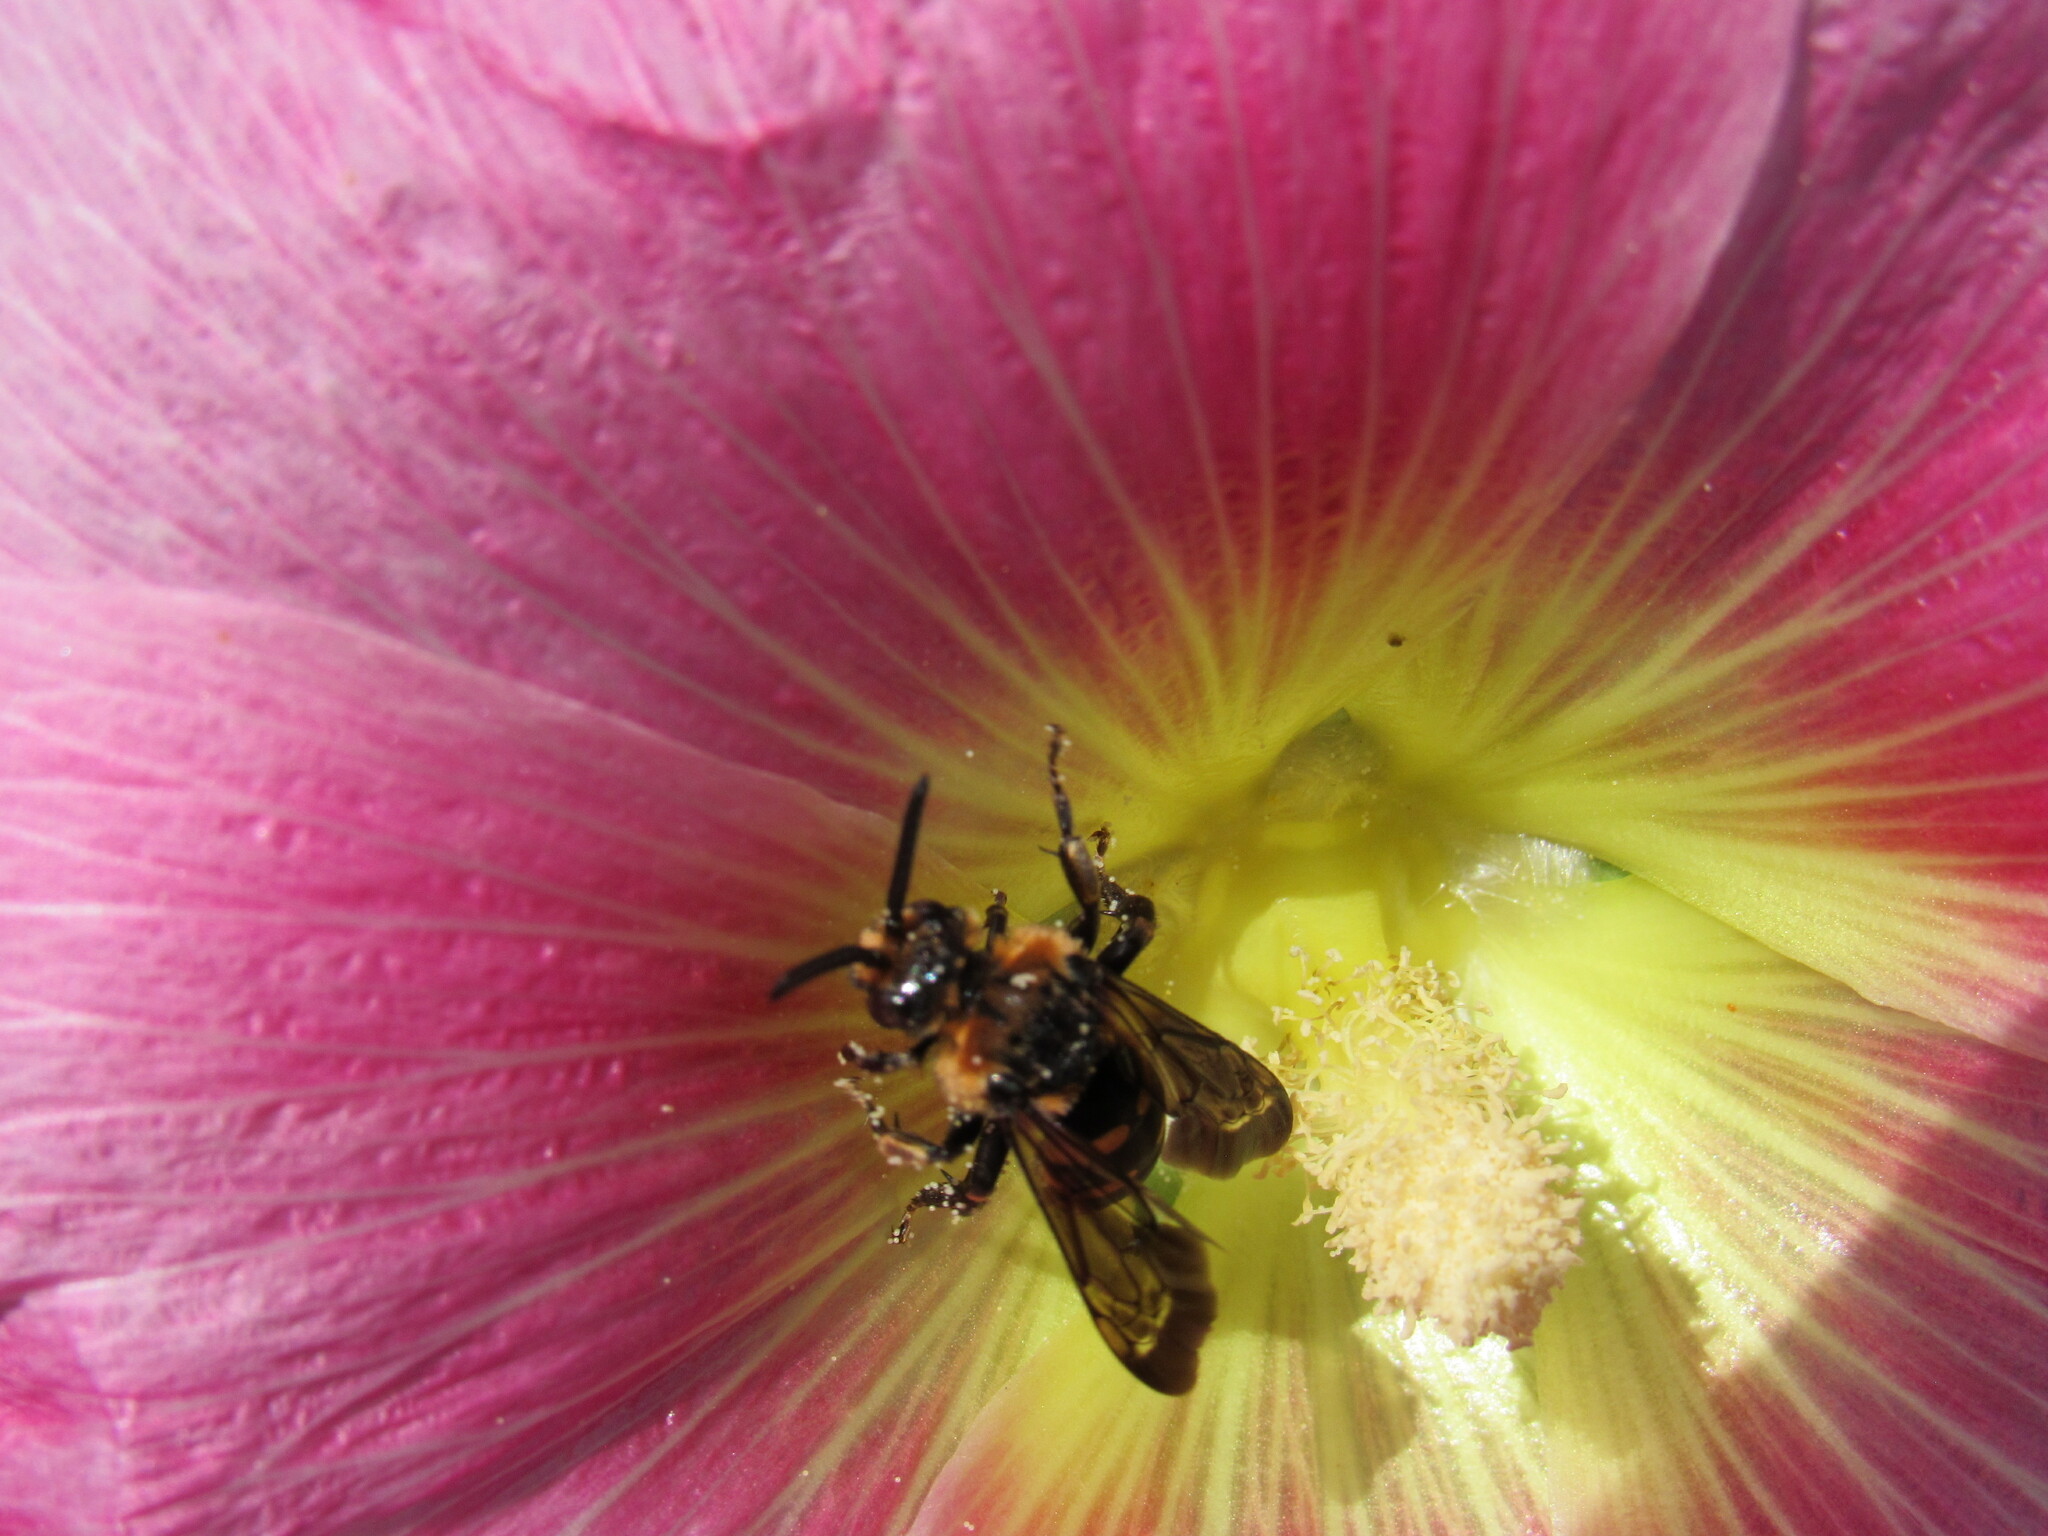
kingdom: Animalia
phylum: Arthropoda
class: Insecta
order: Hymenoptera
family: Apidae
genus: Xeromelecta
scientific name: Xeromelecta interrupta
